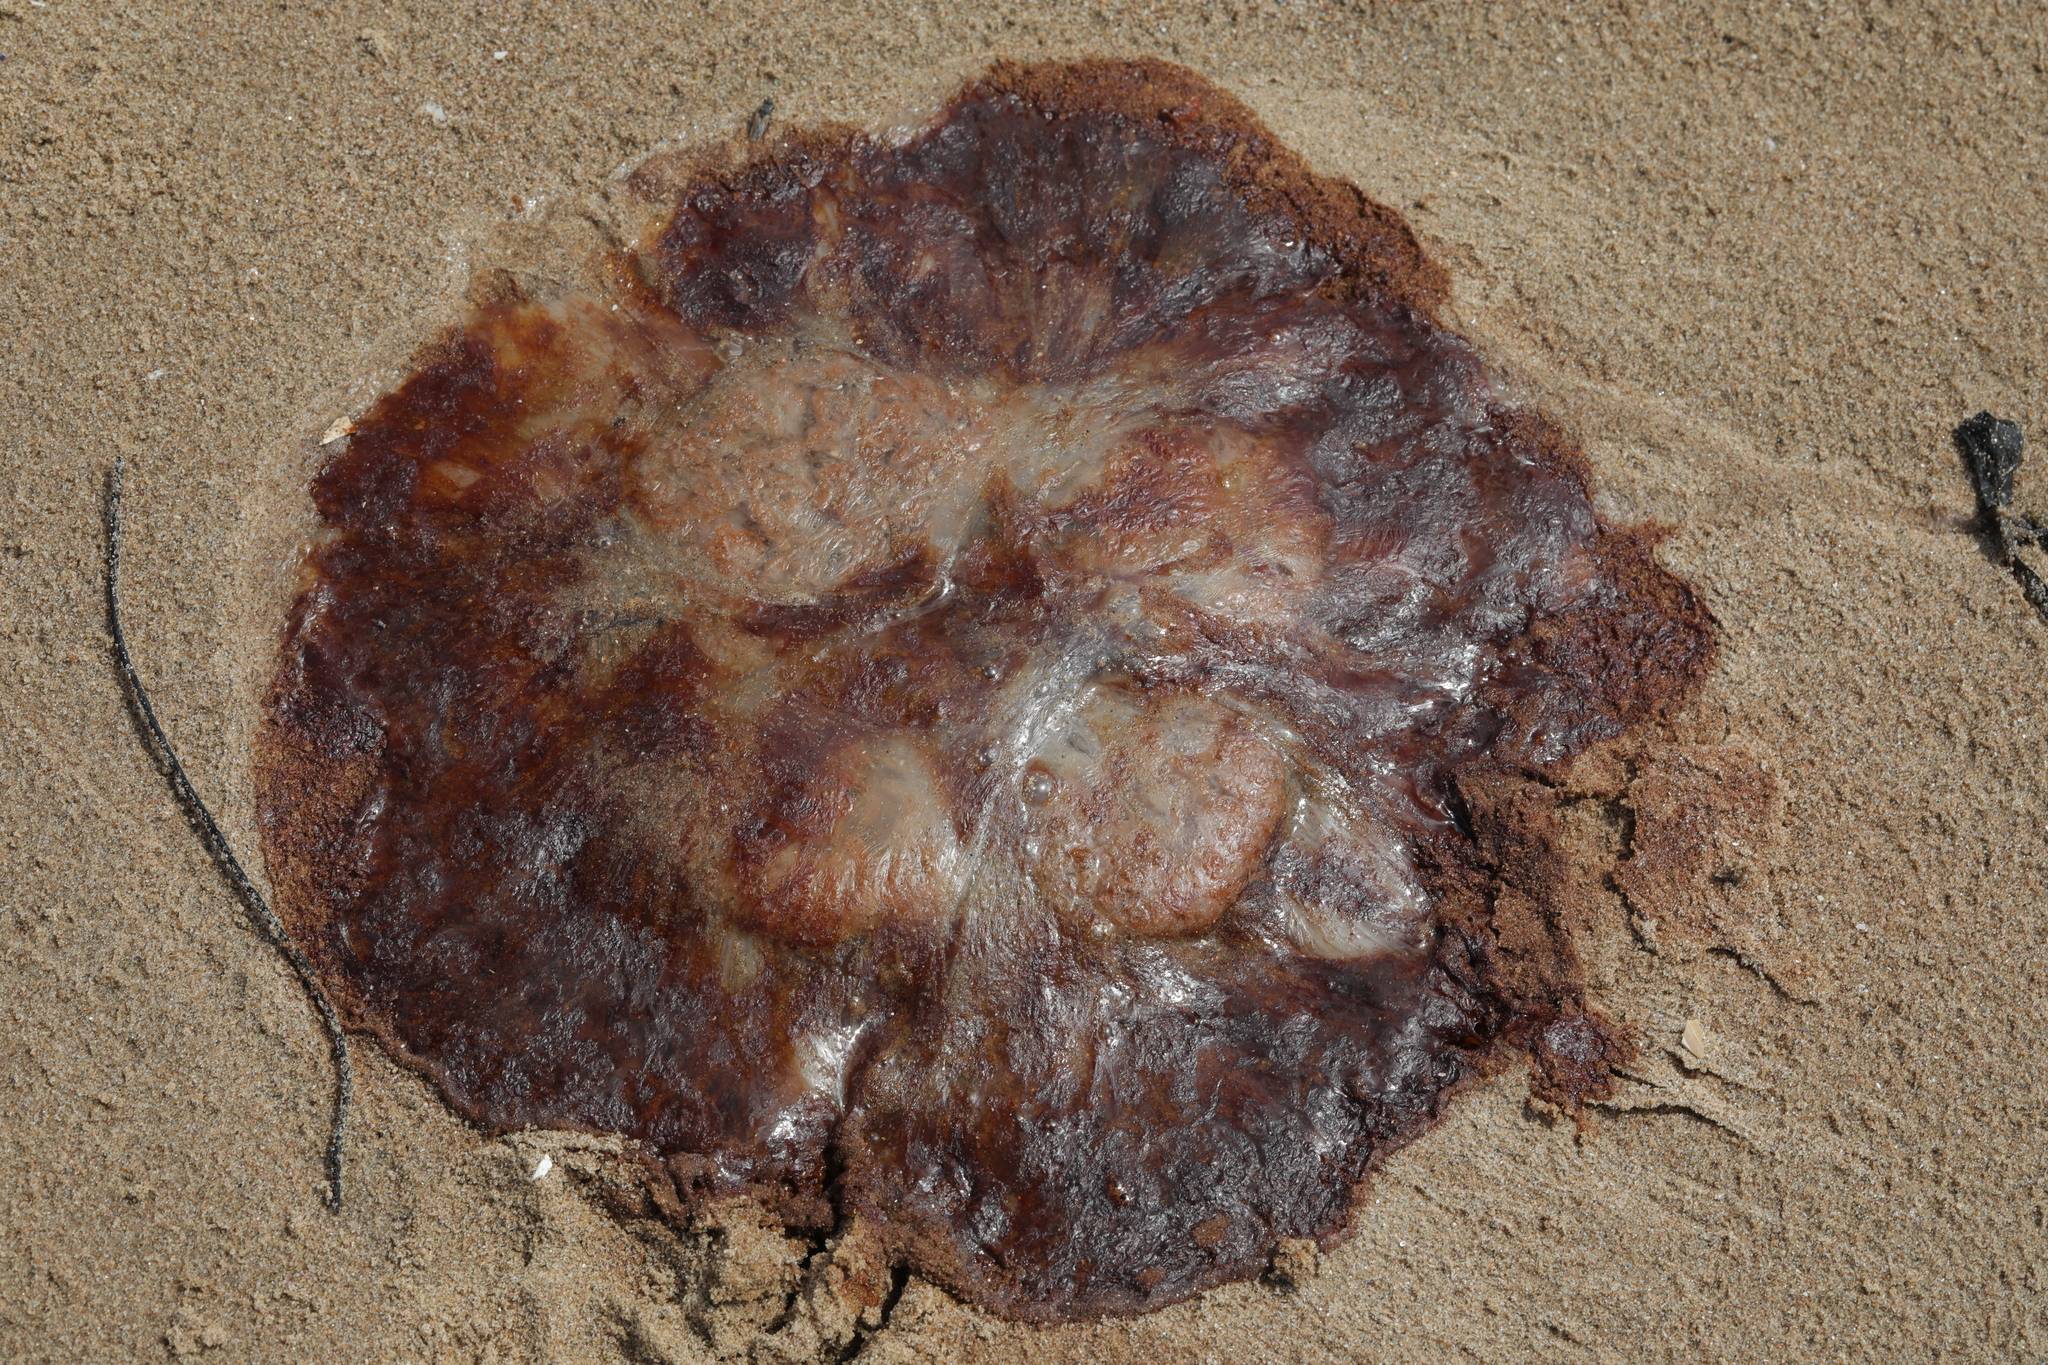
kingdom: Animalia
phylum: Cnidaria
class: Scyphozoa
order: Semaeostomeae
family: Cyaneidae
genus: Cyanea
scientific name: Cyanea capillata
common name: Lion's mane jellyfish
